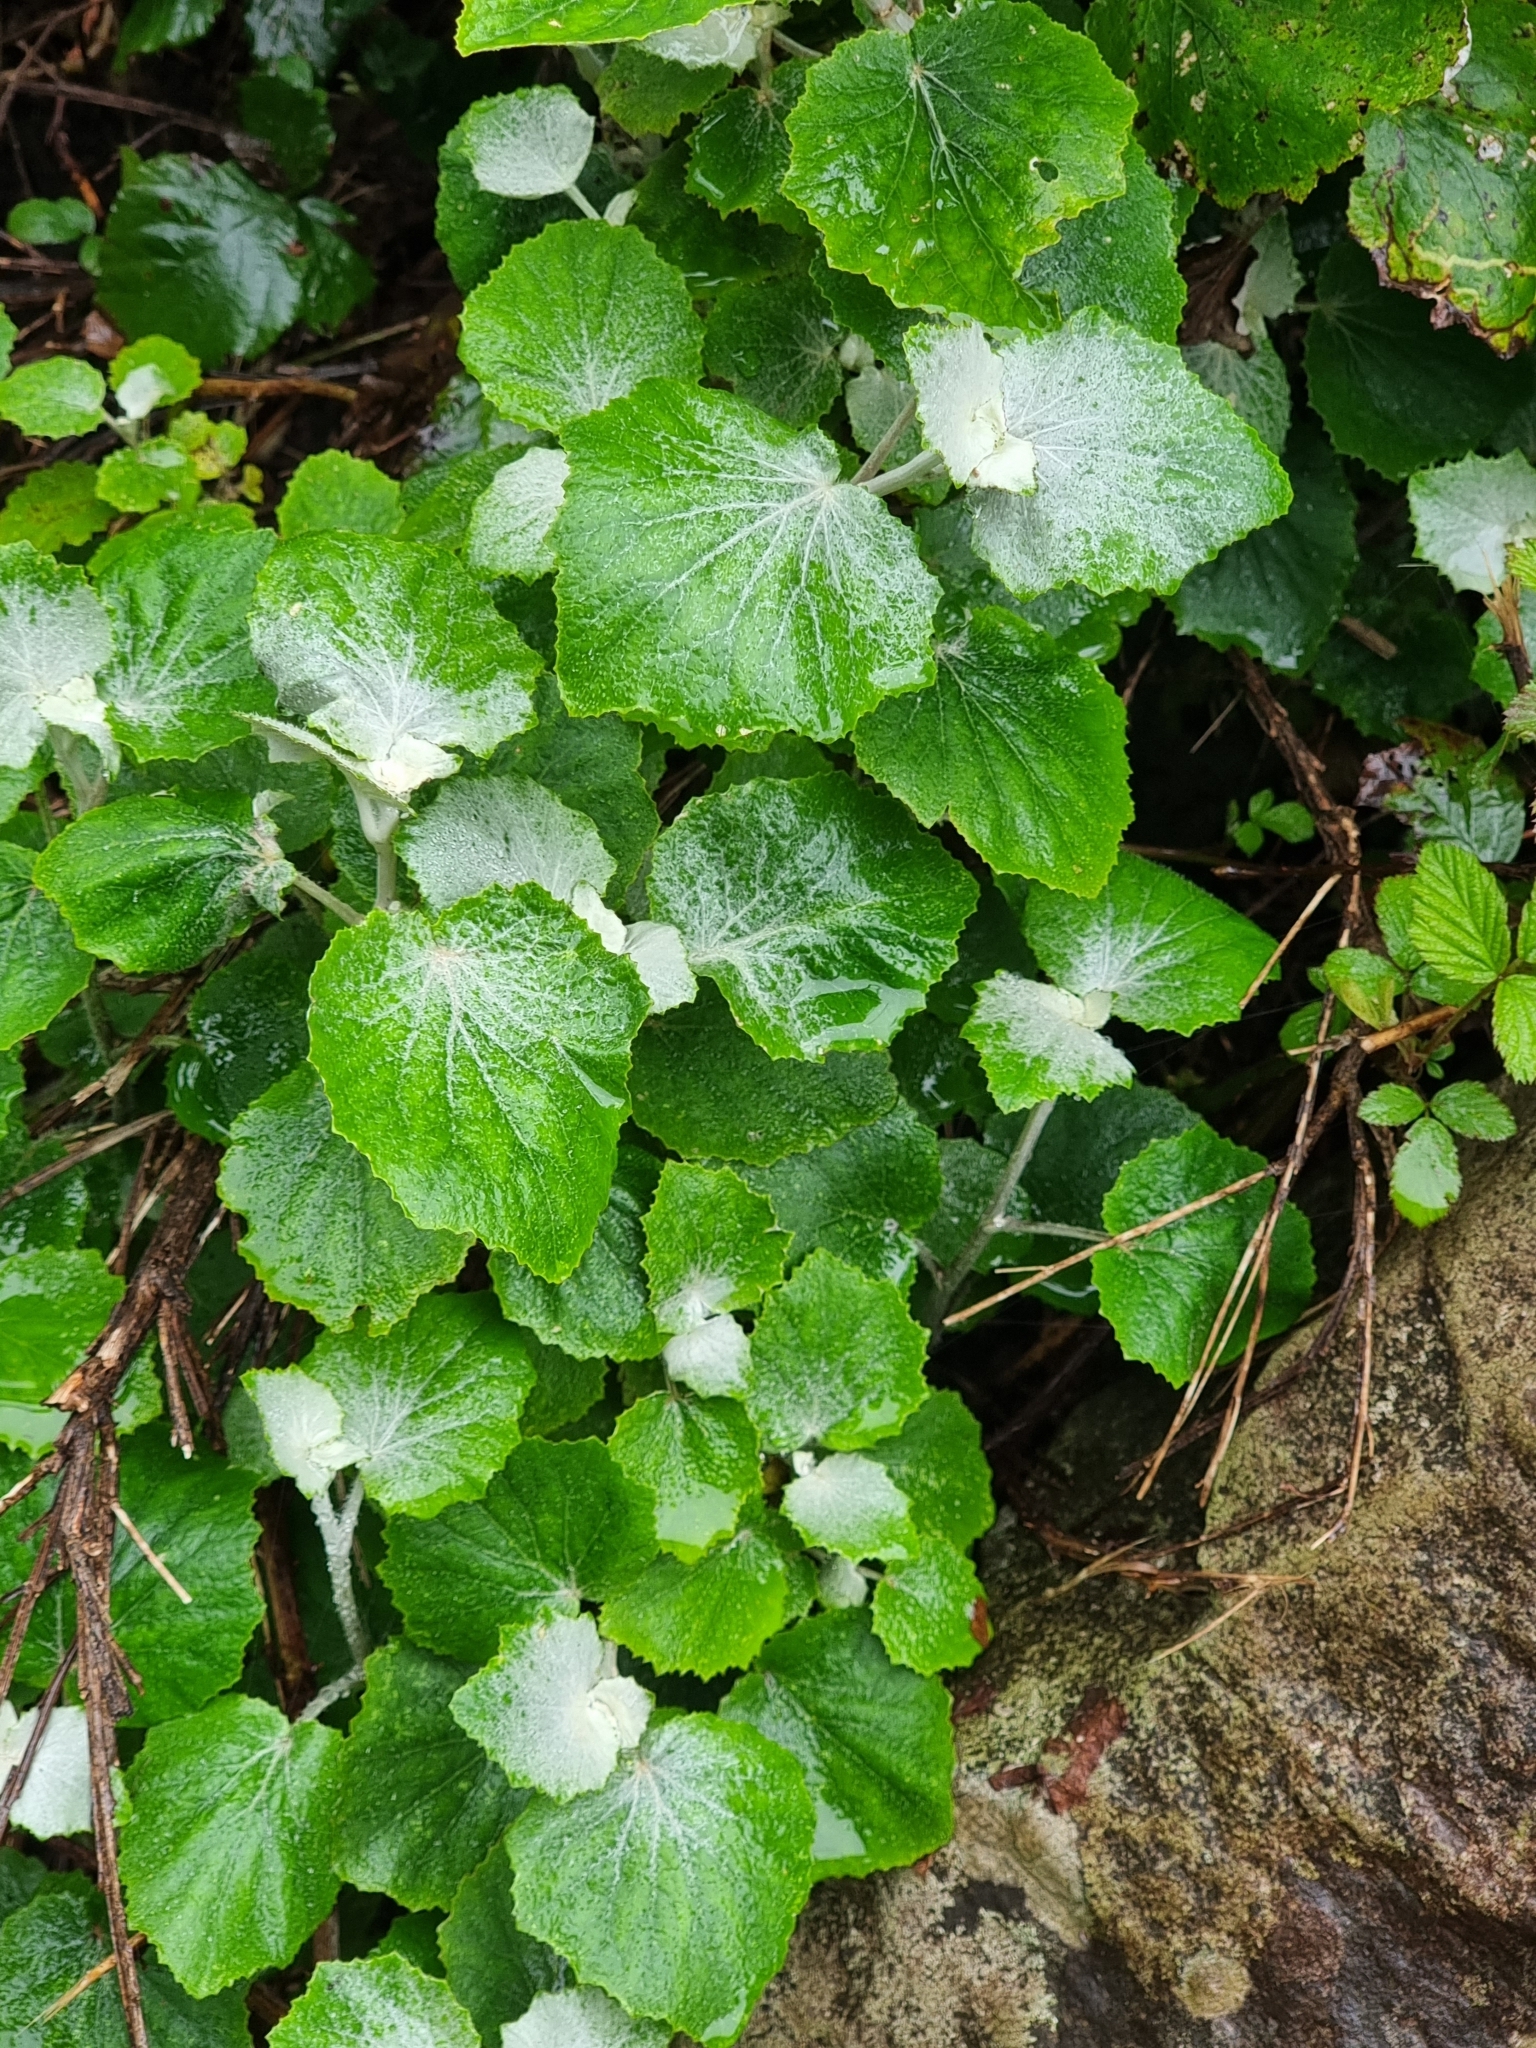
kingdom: Plantae
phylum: Tracheophyta
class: Magnoliopsida
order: Asterales
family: Asteraceae
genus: Pericallis
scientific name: Pericallis aurita
